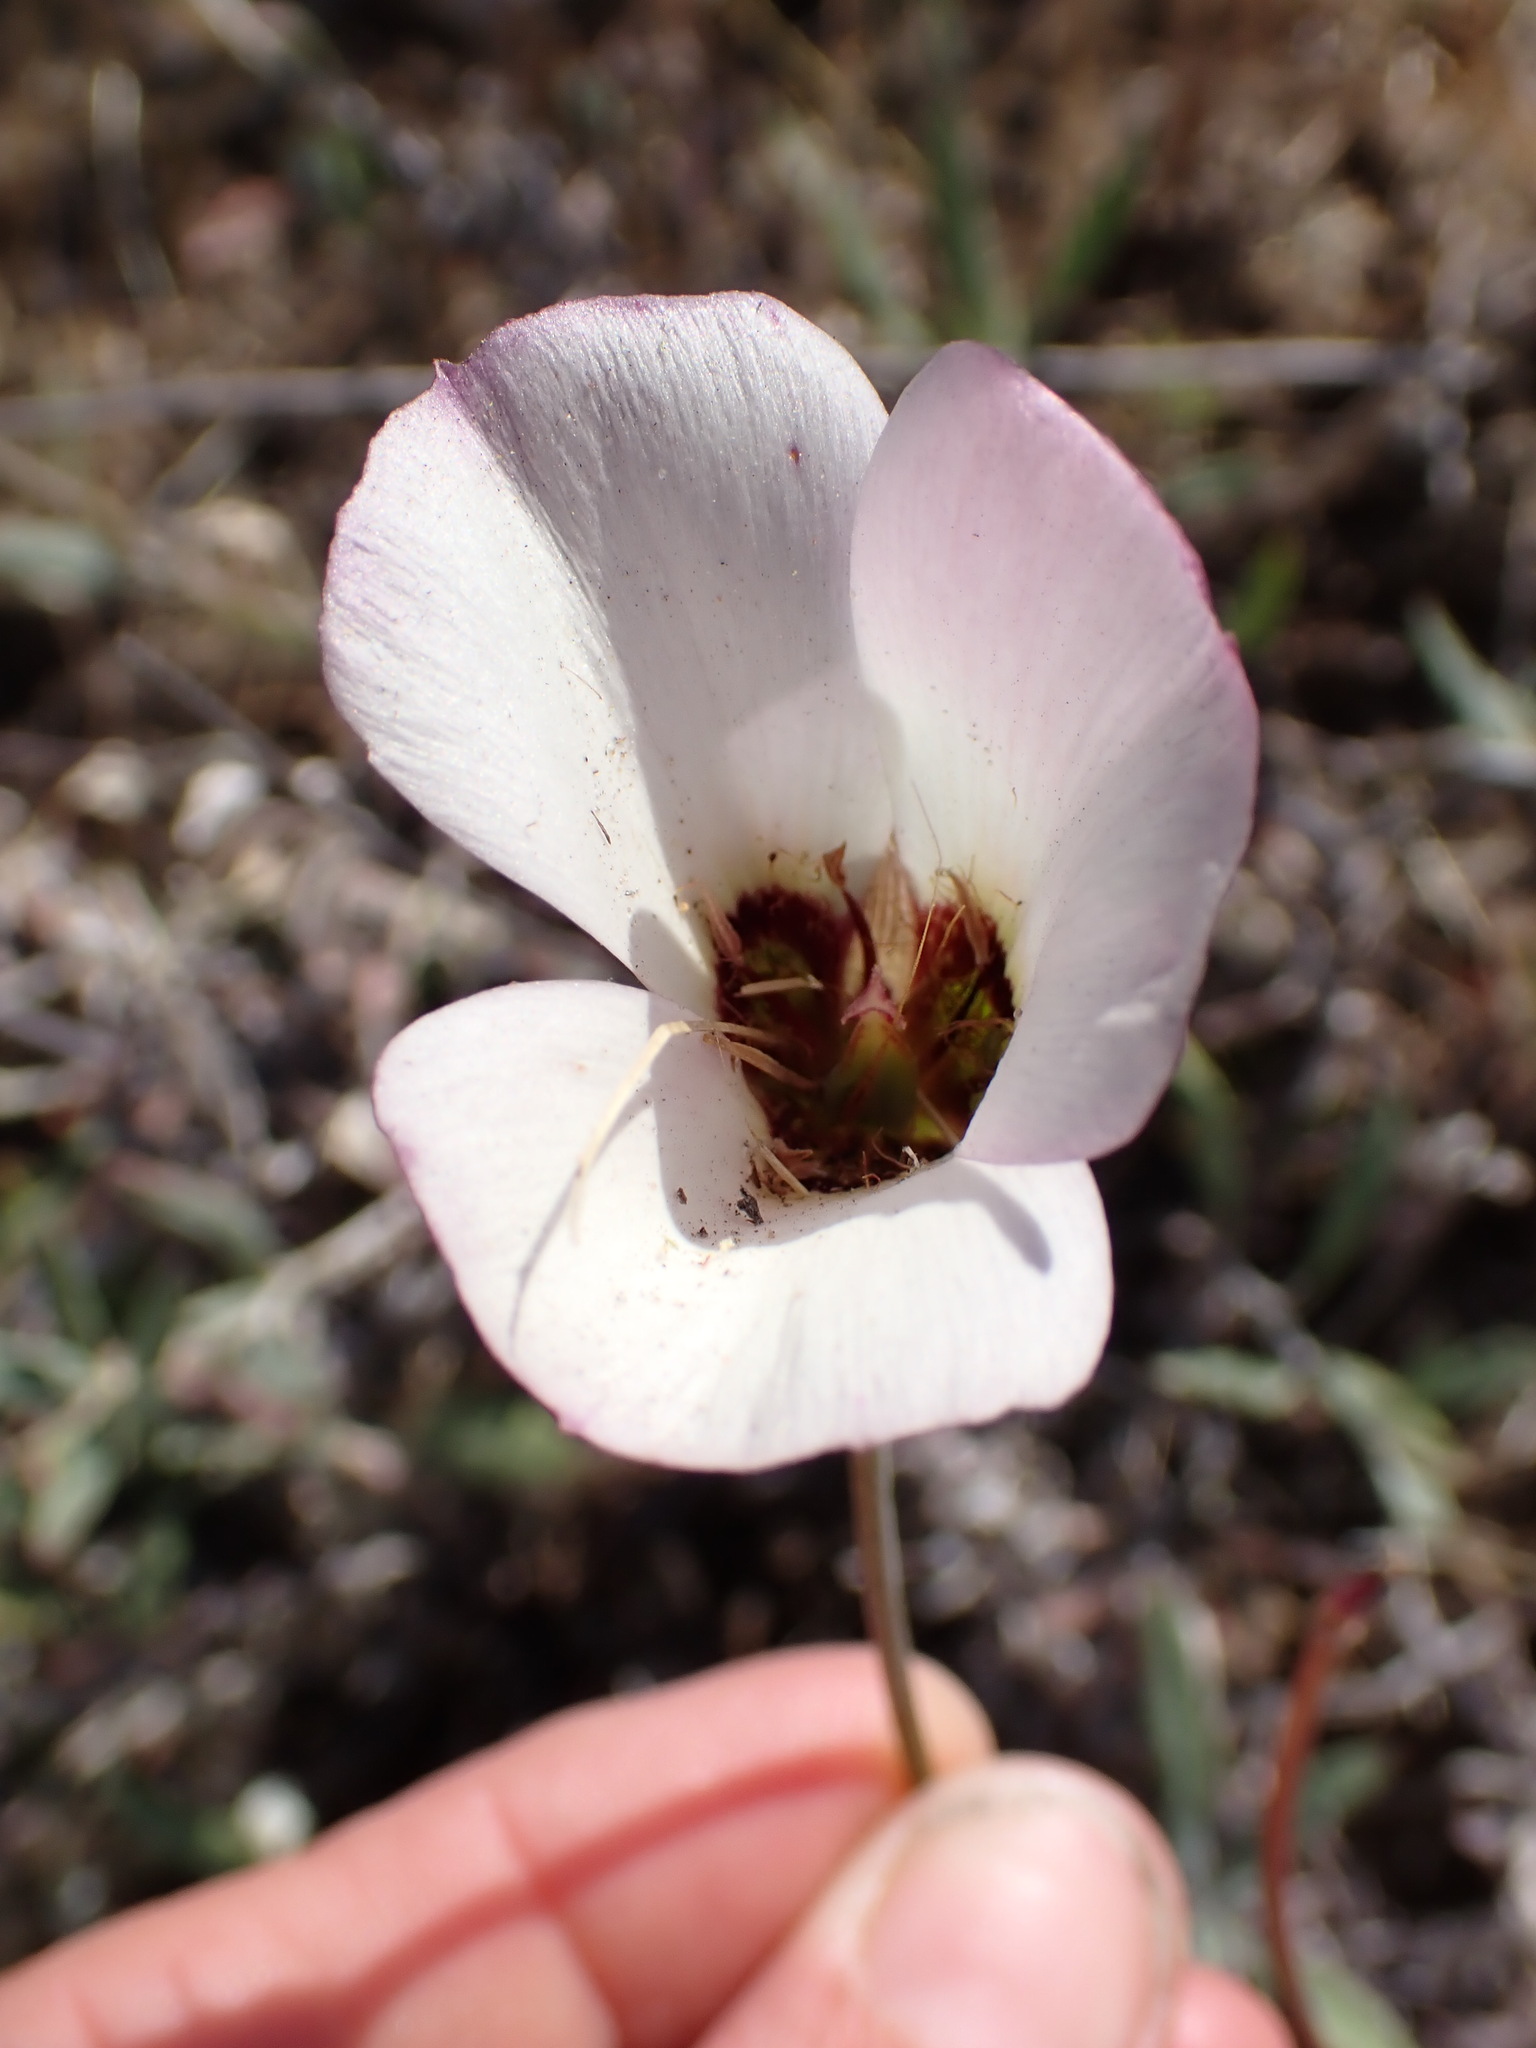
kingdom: Plantae
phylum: Tracheophyta
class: Liliopsida
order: Liliales
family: Liliaceae
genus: Calochortus
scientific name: Calochortus catalinae
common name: Catalina mariposa-lily
